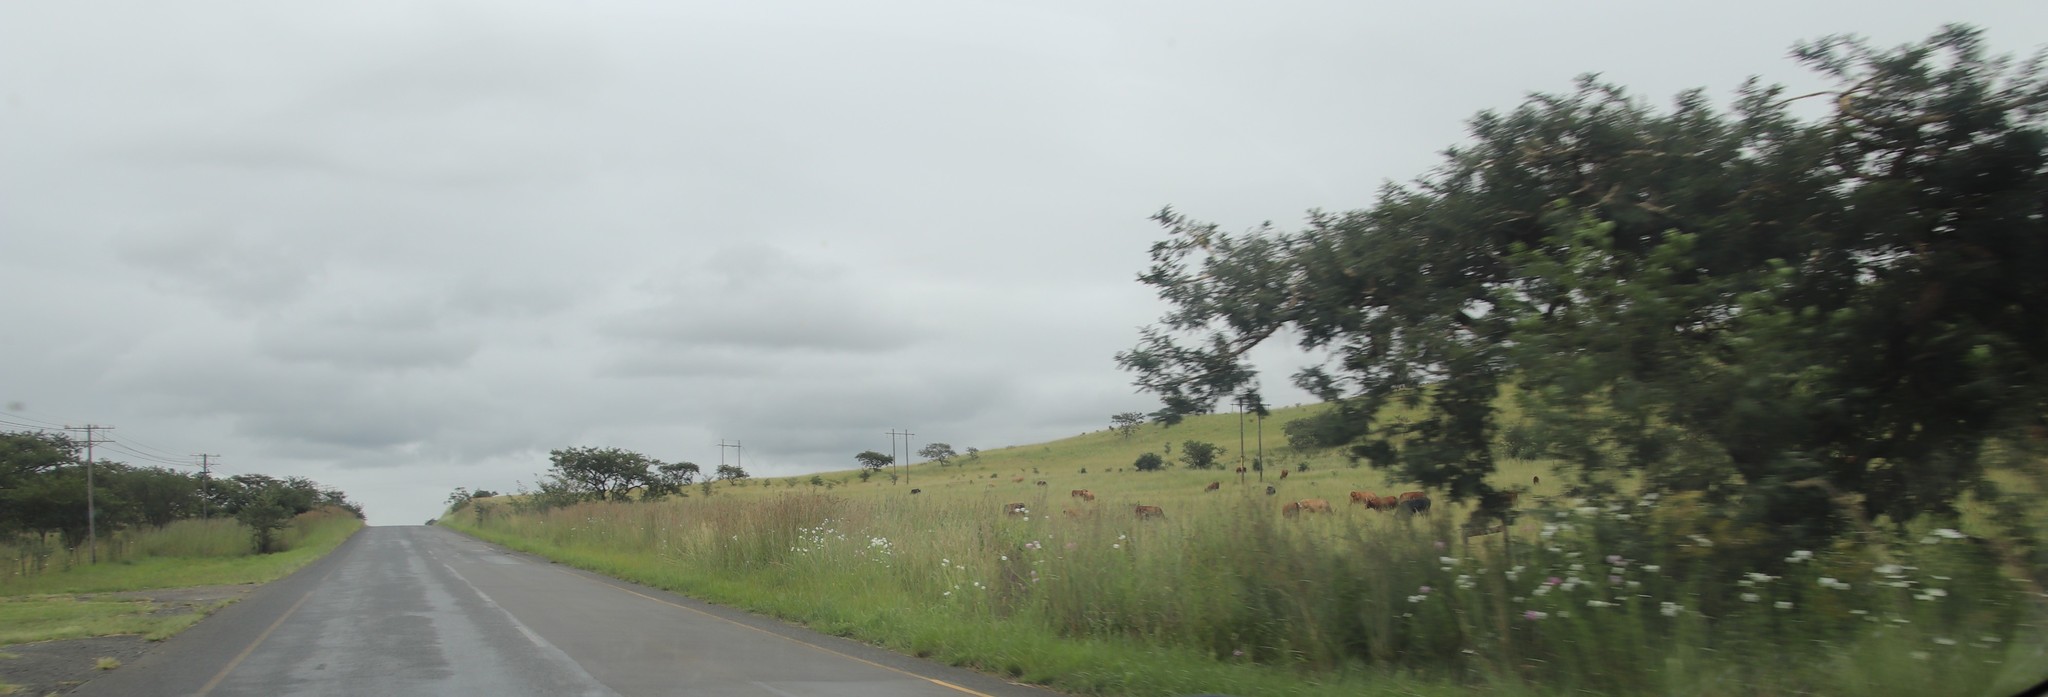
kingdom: Plantae
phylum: Tracheophyta
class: Magnoliopsida
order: Asterales
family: Asteraceae
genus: Cosmos
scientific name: Cosmos bipinnatus
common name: Garden cosmos
